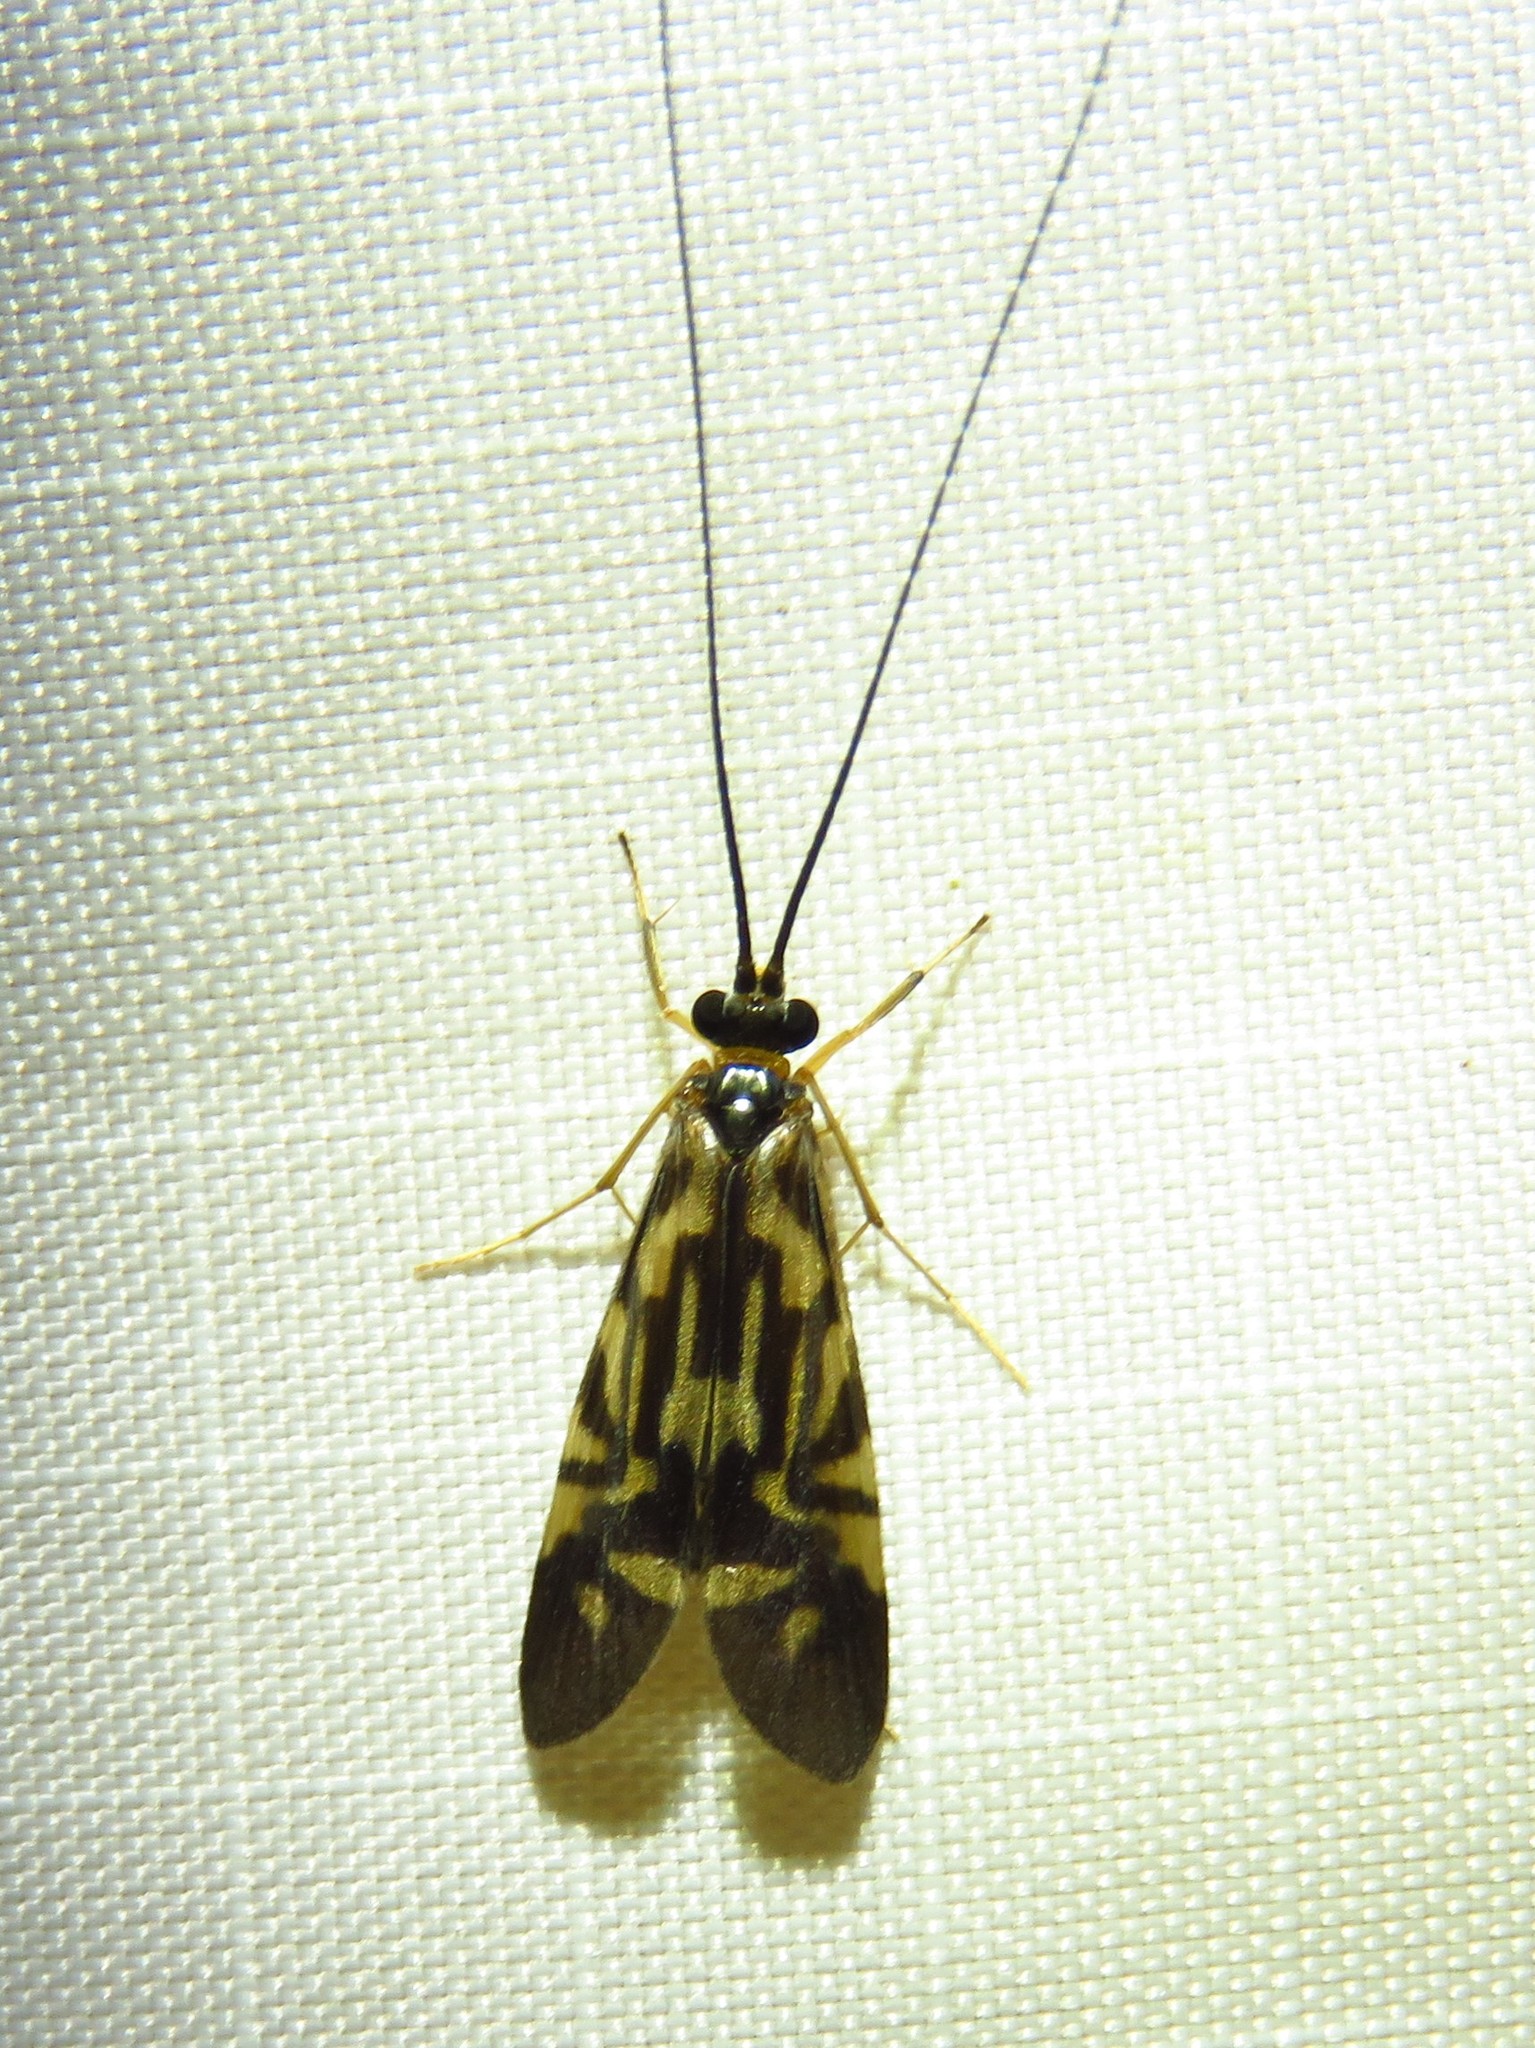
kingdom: Animalia
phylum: Arthropoda
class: Insecta
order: Trichoptera
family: Hydropsychidae
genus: Macrostemum
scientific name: Macrostemum carolina
